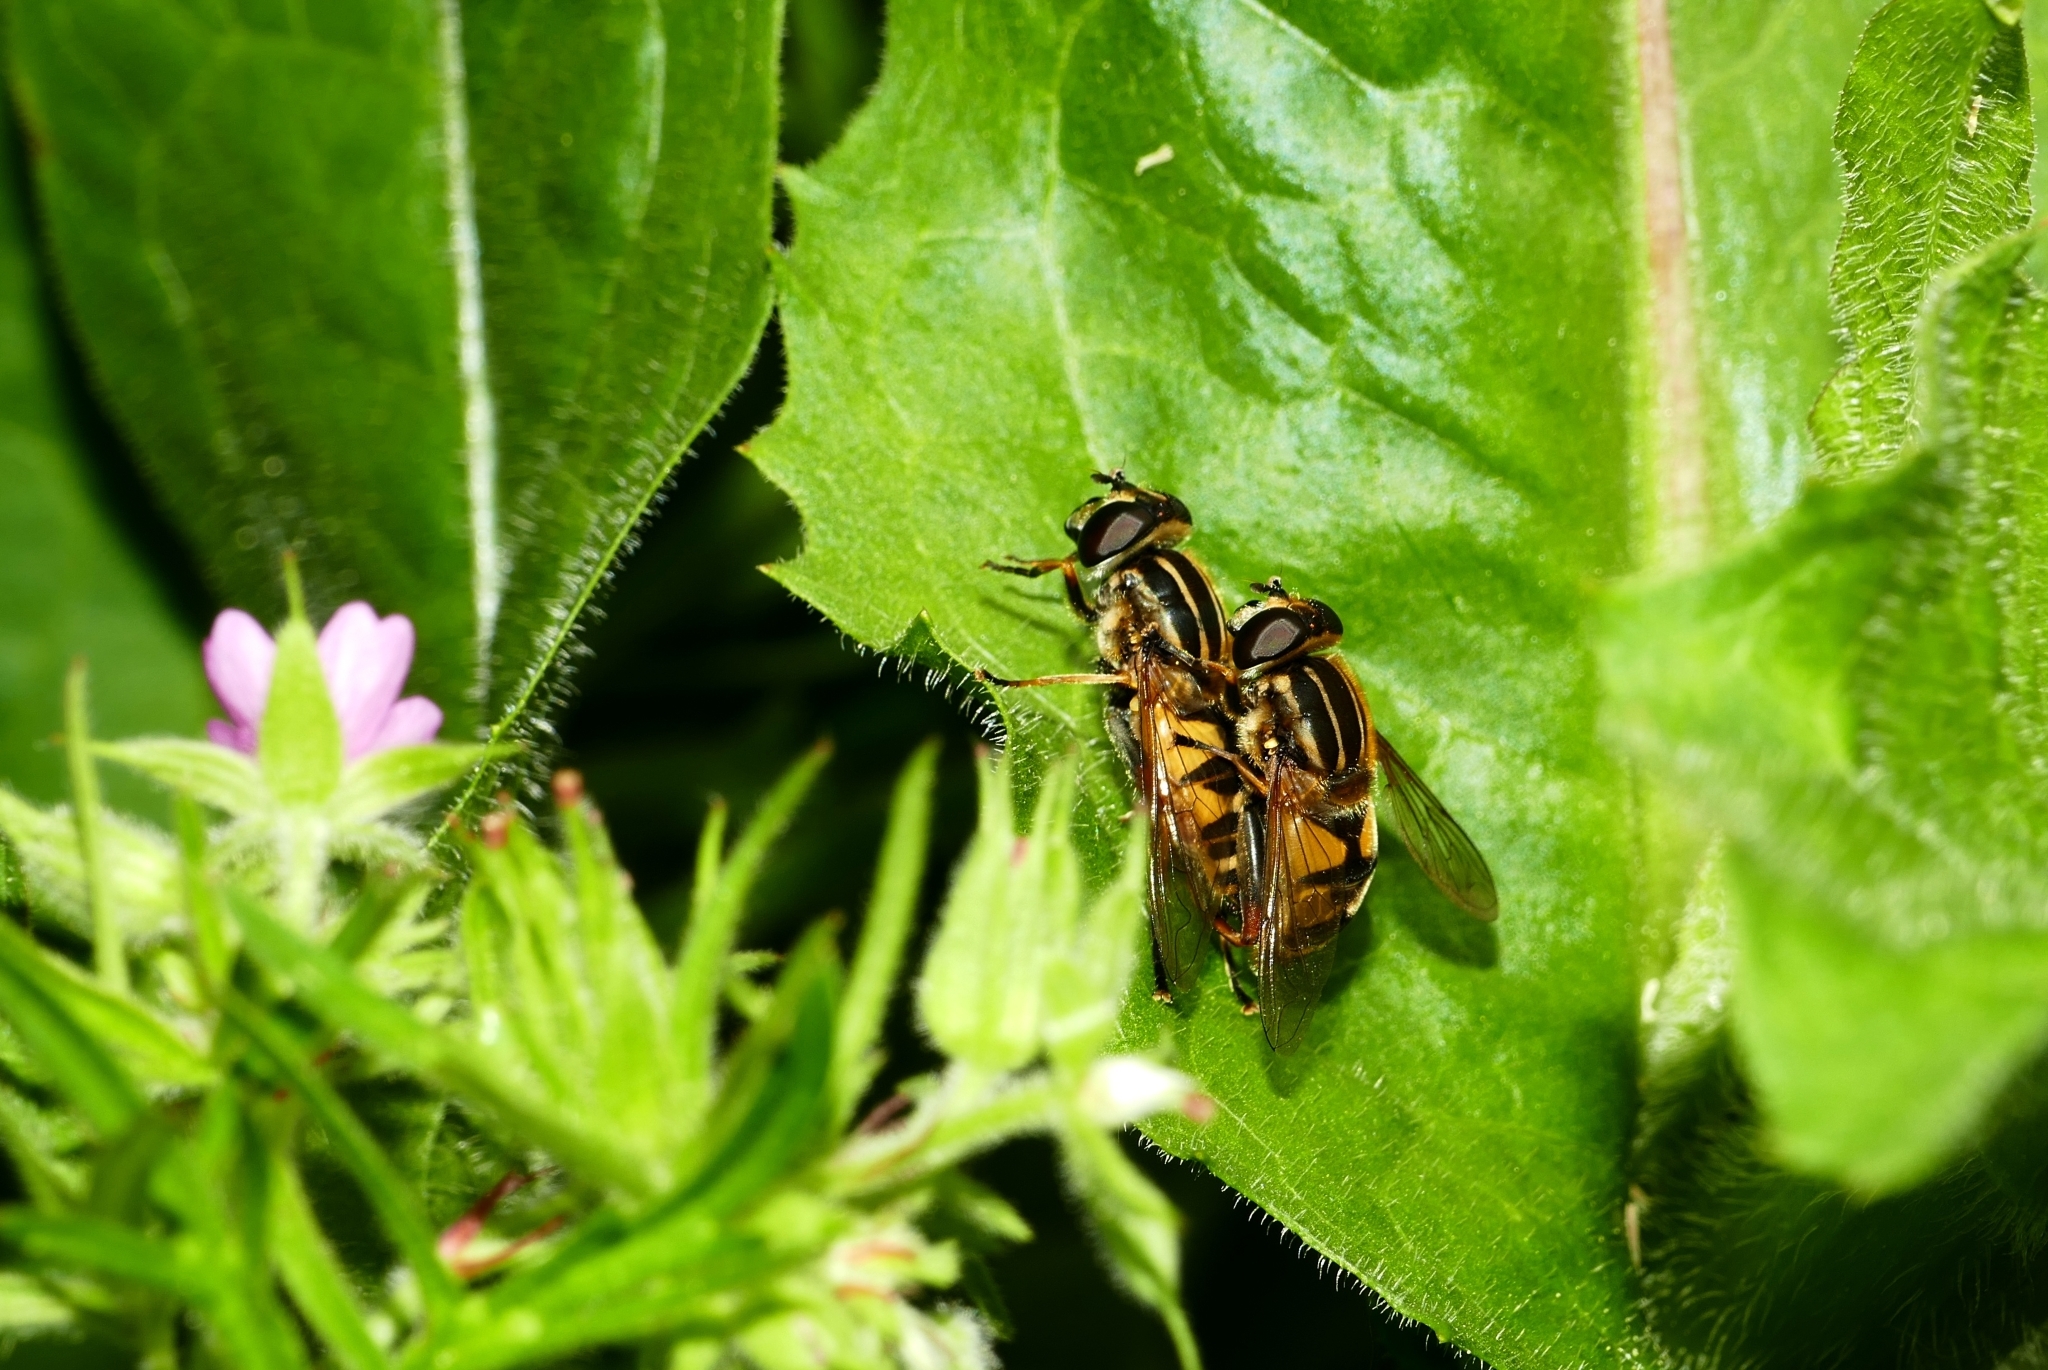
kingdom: Animalia
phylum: Arthropoda
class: Insecta
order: Diptera
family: Syrphidae
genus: Helophilus
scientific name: Helophilus pendulus
